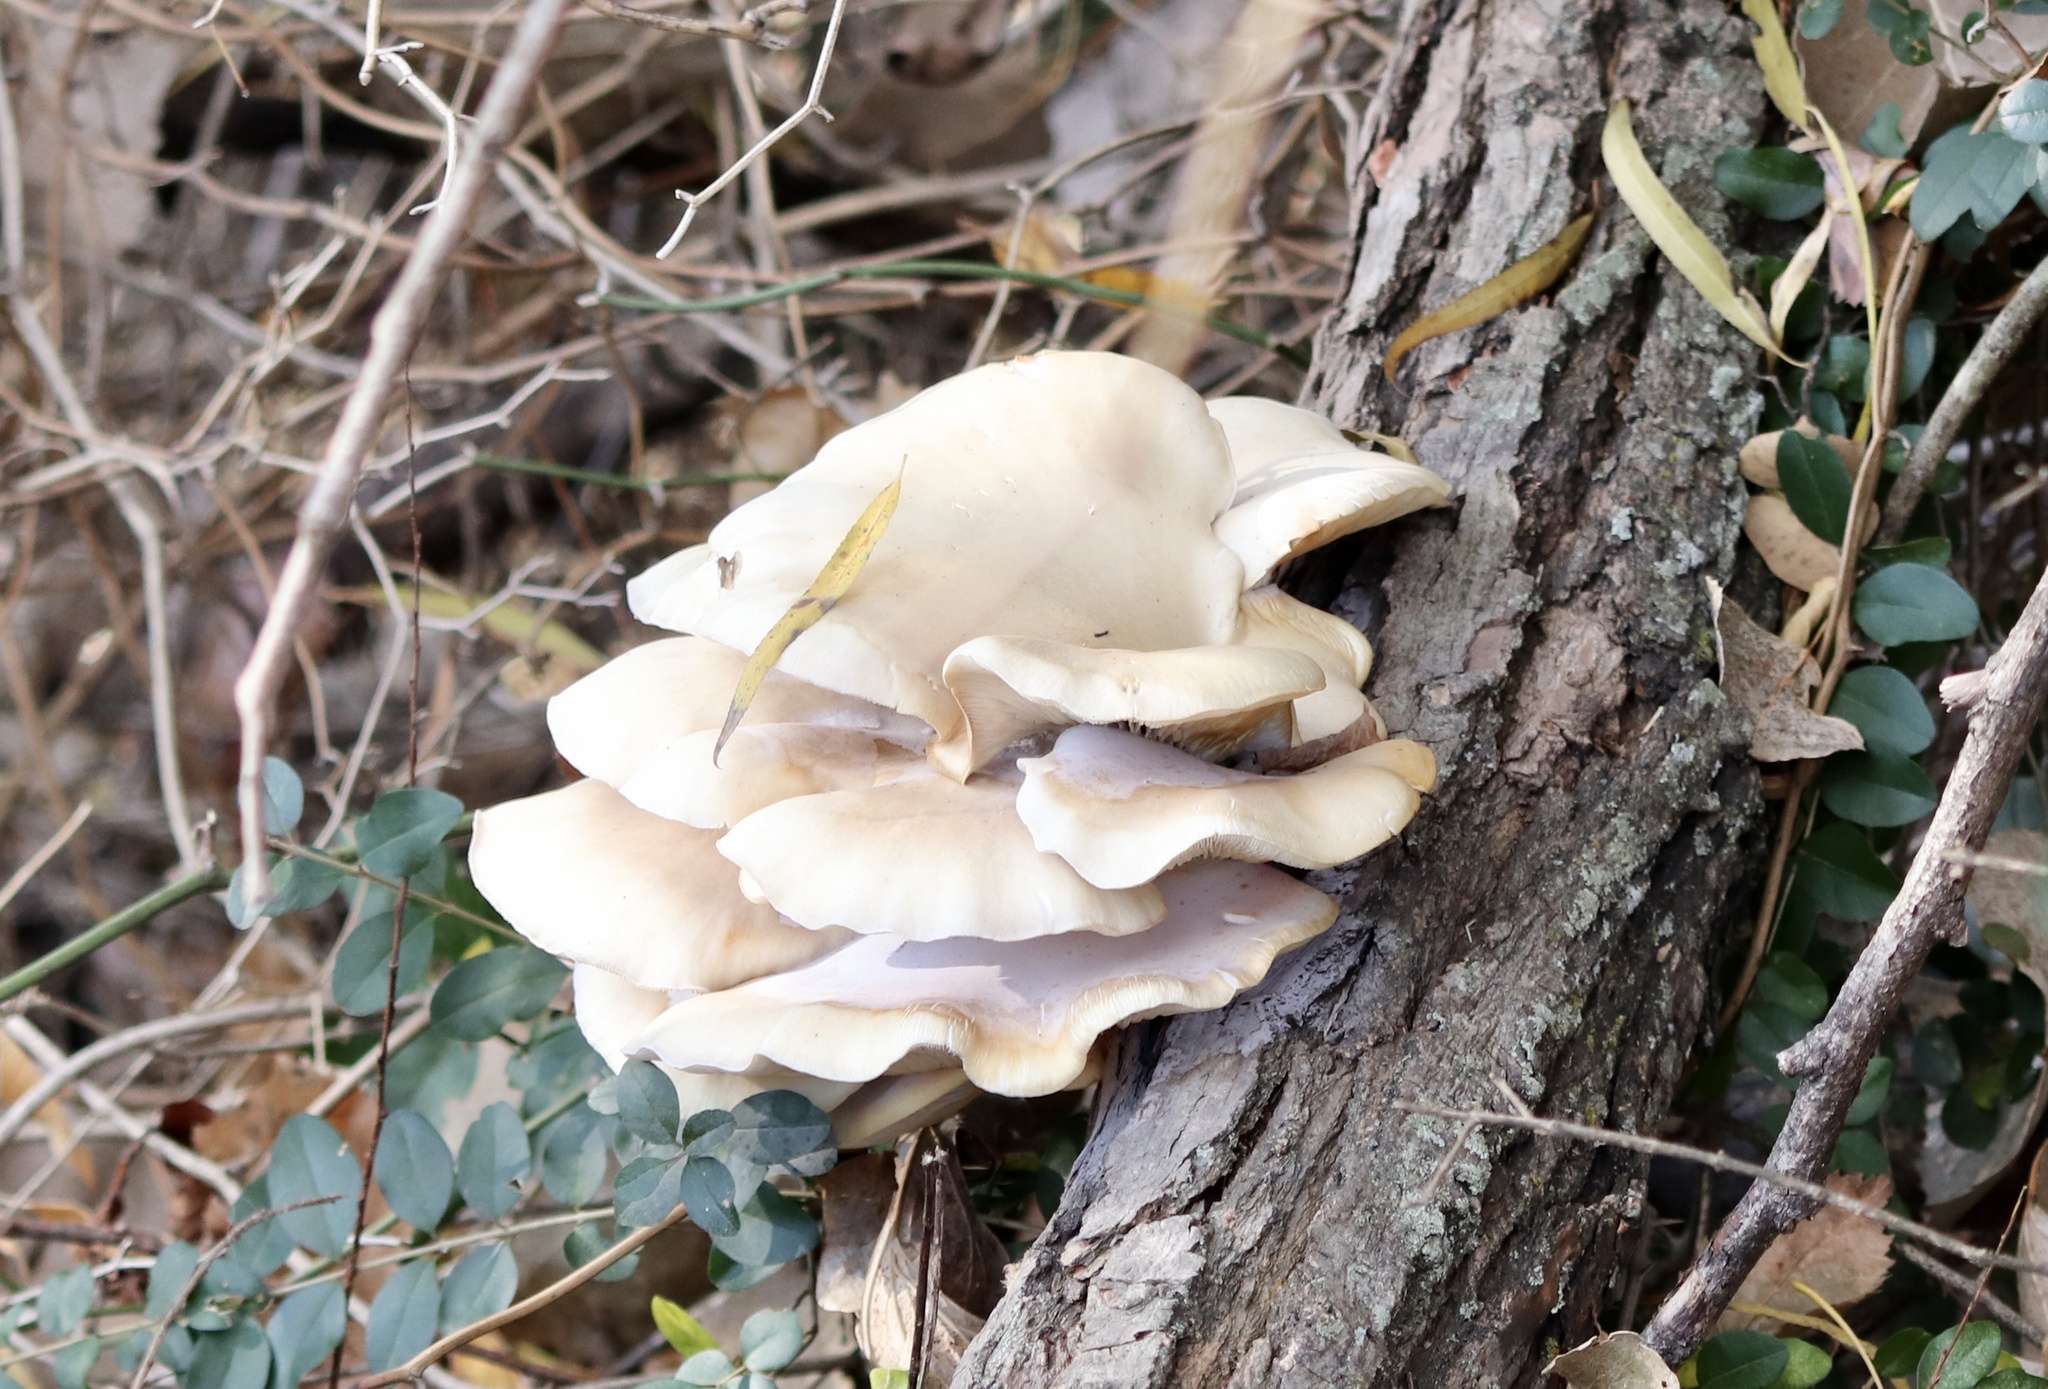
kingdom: Fungi
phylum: Basidiomycota
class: Agaricomycetes
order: Agaricales
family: Pleurotaceae
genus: Pleurotus
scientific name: Pleurotus ostreatus
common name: Oyster mushroom
